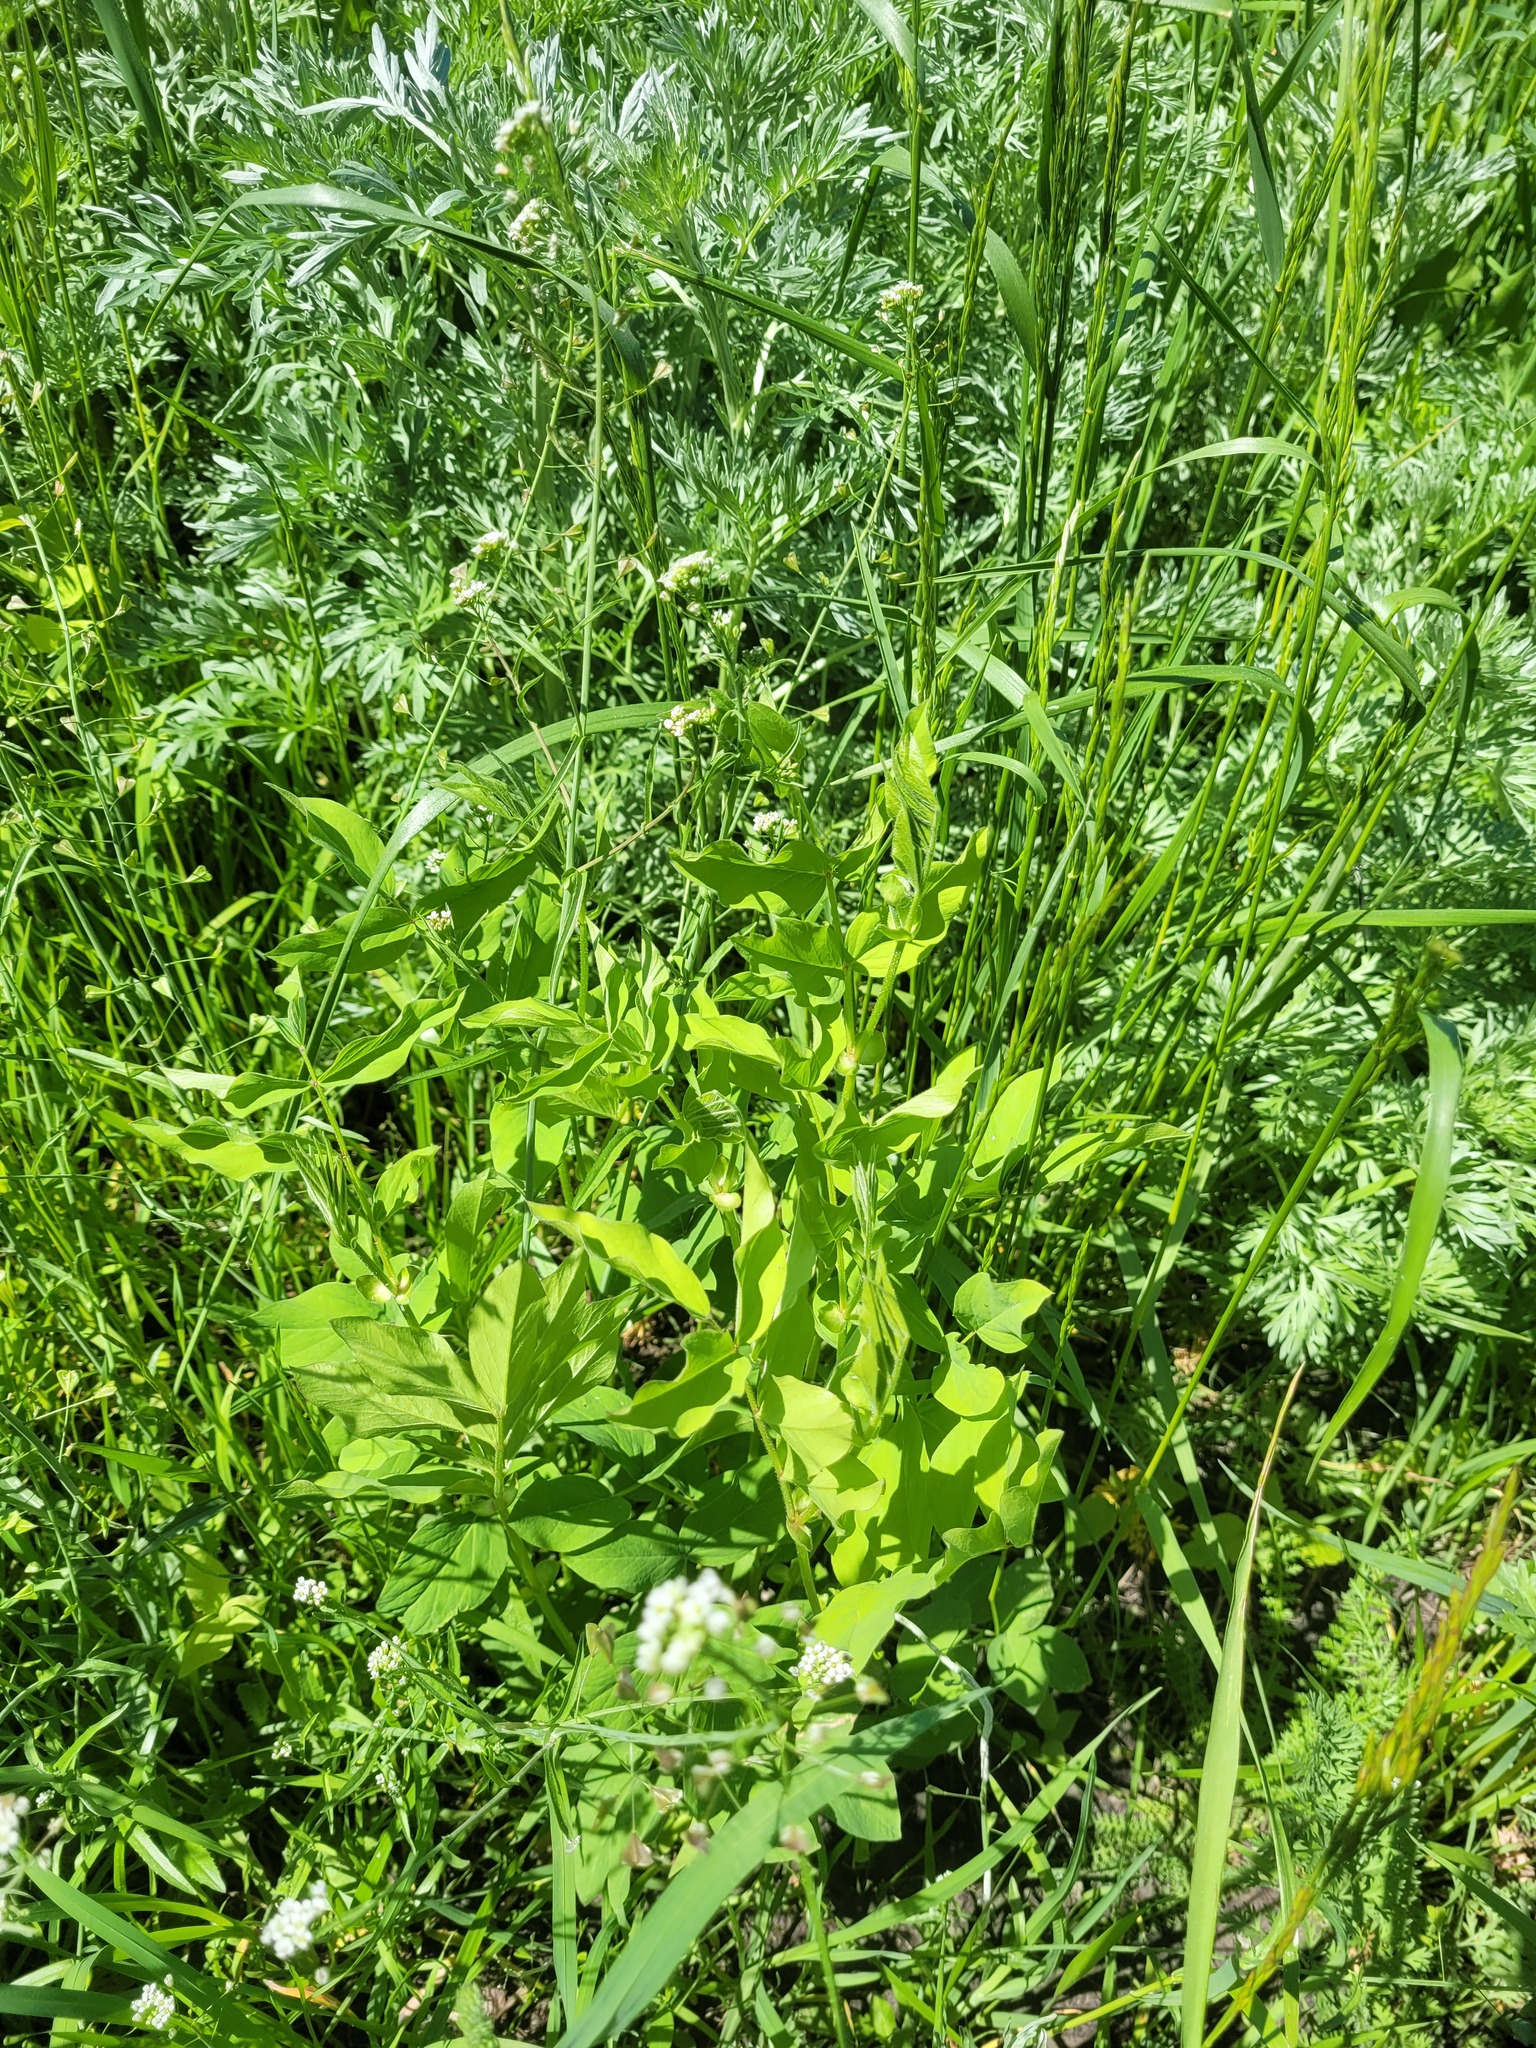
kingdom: Plantae
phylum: Tracheophyta
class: Magnoliopsida
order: Fabales
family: Fabaceae
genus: Galega
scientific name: Galega orientalis
